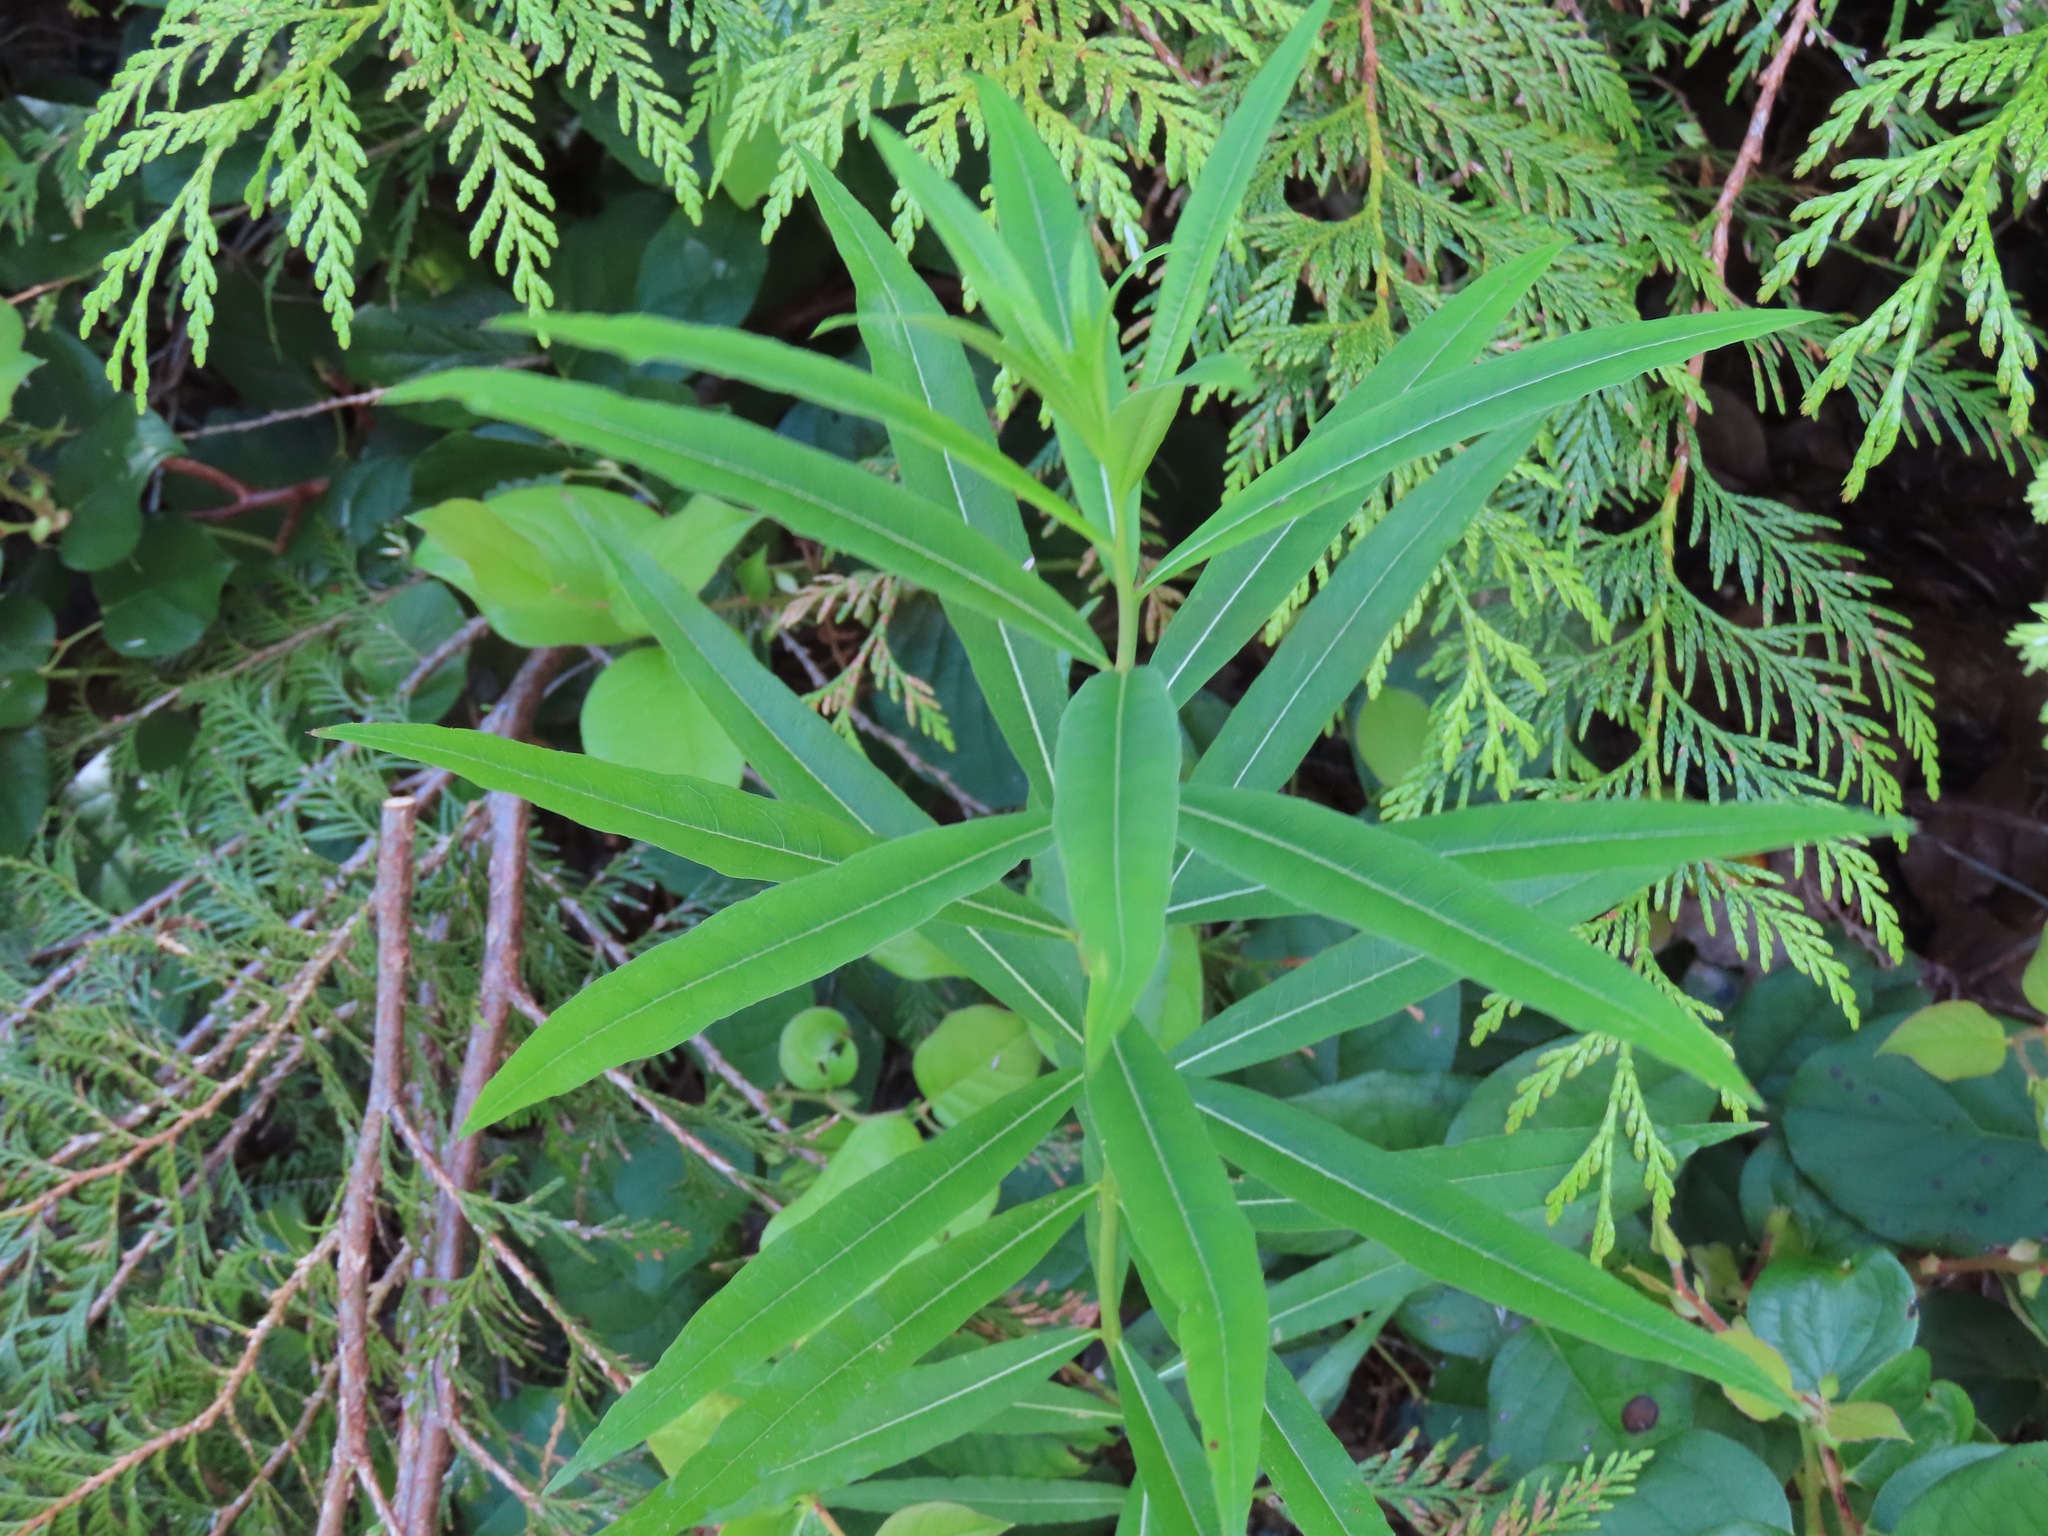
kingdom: Plantae
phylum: Tracheophyta
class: Magnoliopsida
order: Myrtales
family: Onagraceae
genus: Chamaenerion
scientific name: Chamaenerion angustifolium
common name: Fireweed
